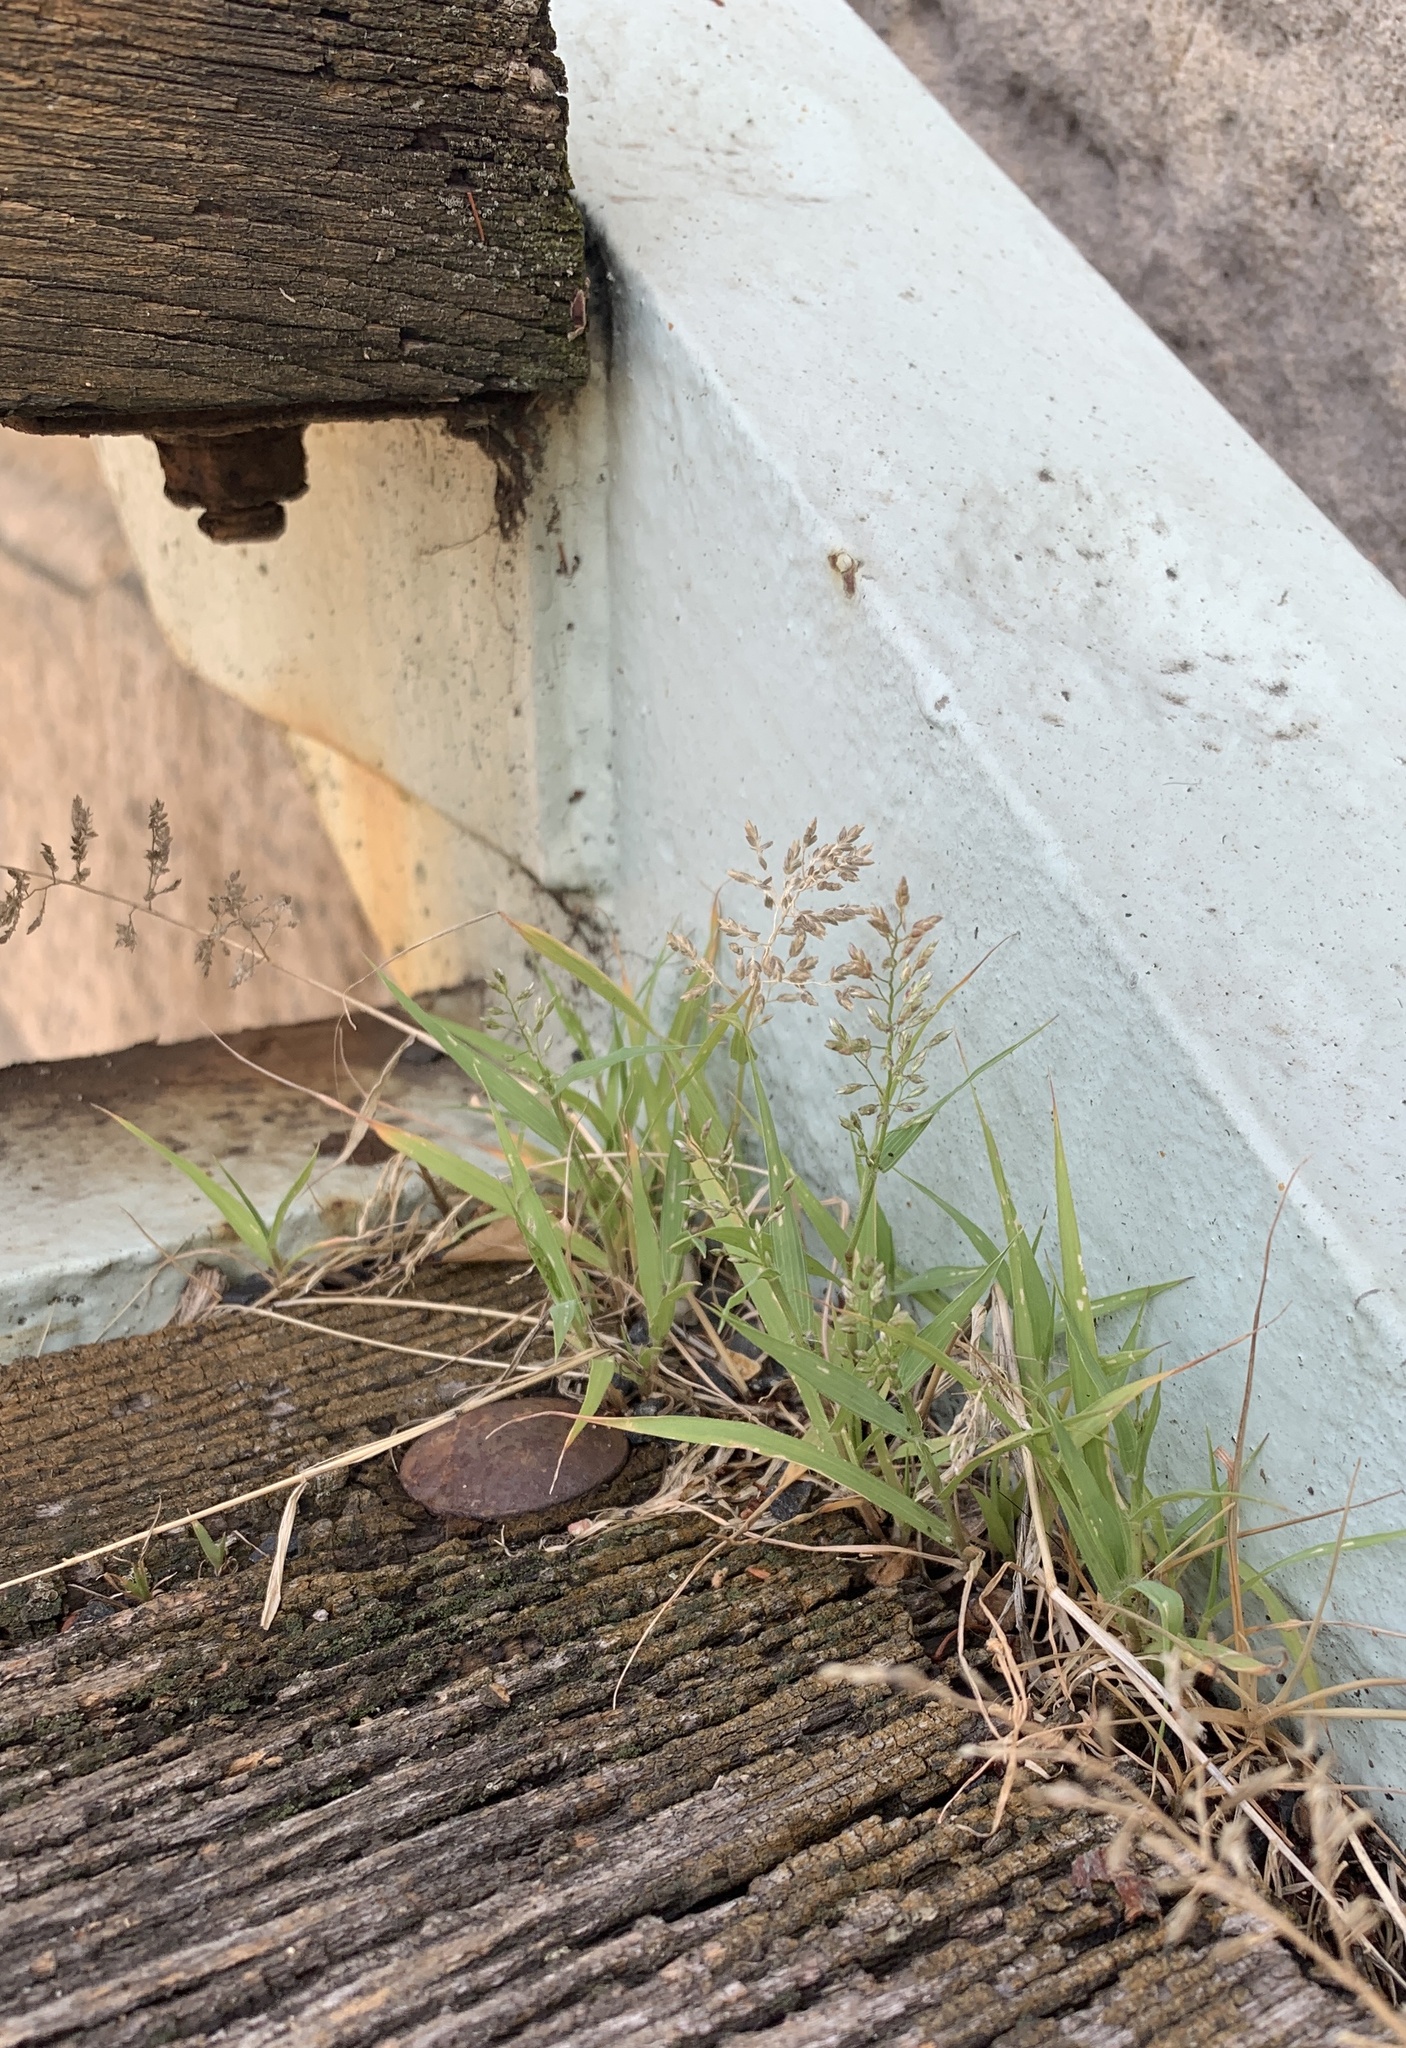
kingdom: Plantae
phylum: Tracheophyta
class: Liliopsida
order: Poales
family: Poaceae
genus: Eragrostis
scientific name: Eragrostis minor
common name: Small love-grass
